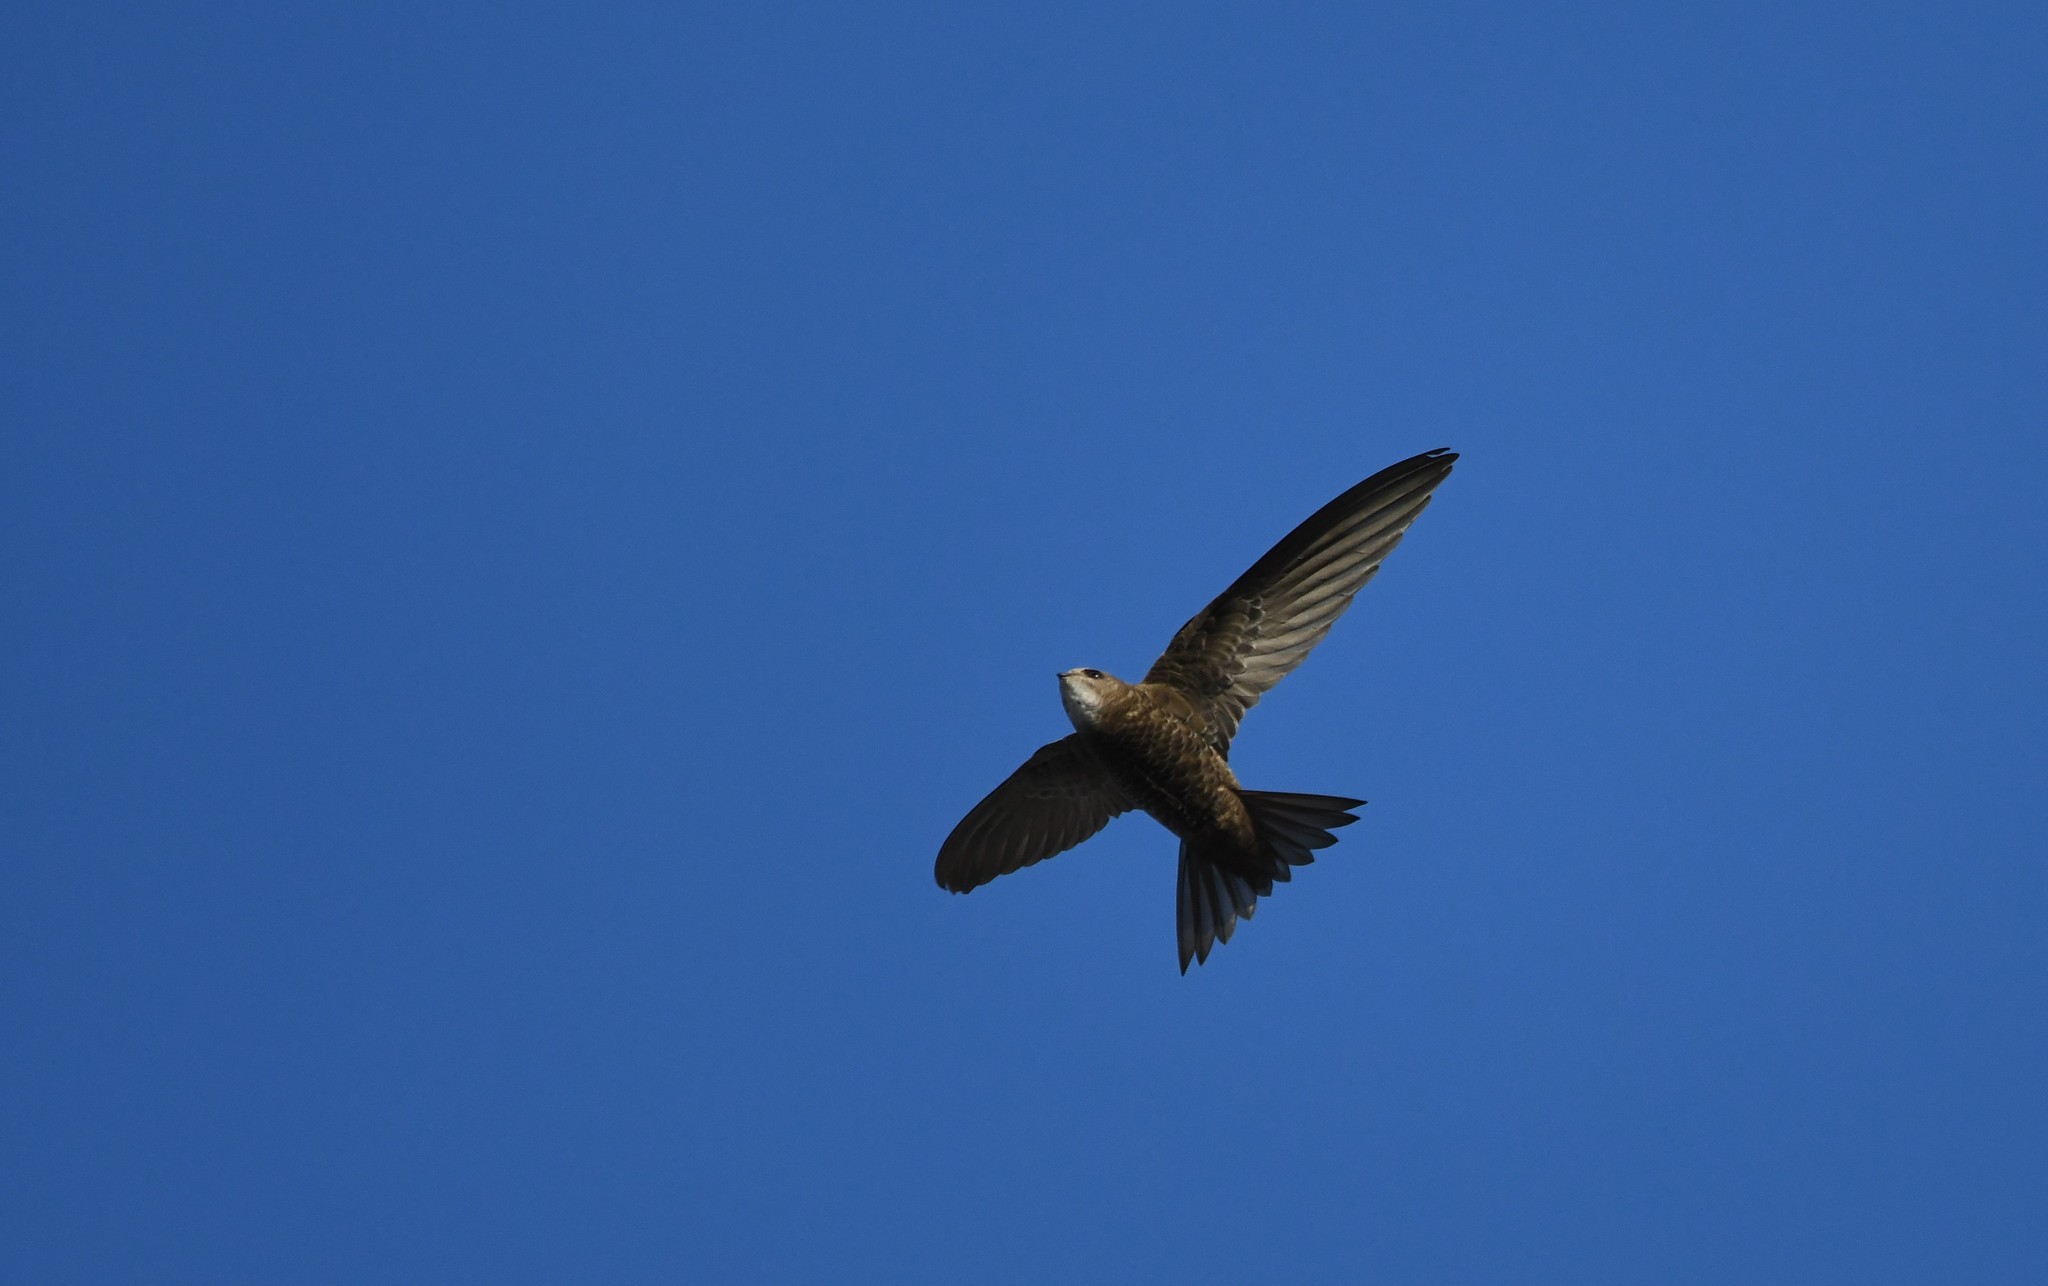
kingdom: Animalia
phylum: Chordata
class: Aves
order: Apodiformes
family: Apodidae
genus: Apus
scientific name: Apus pallidus
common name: Pallid swift
